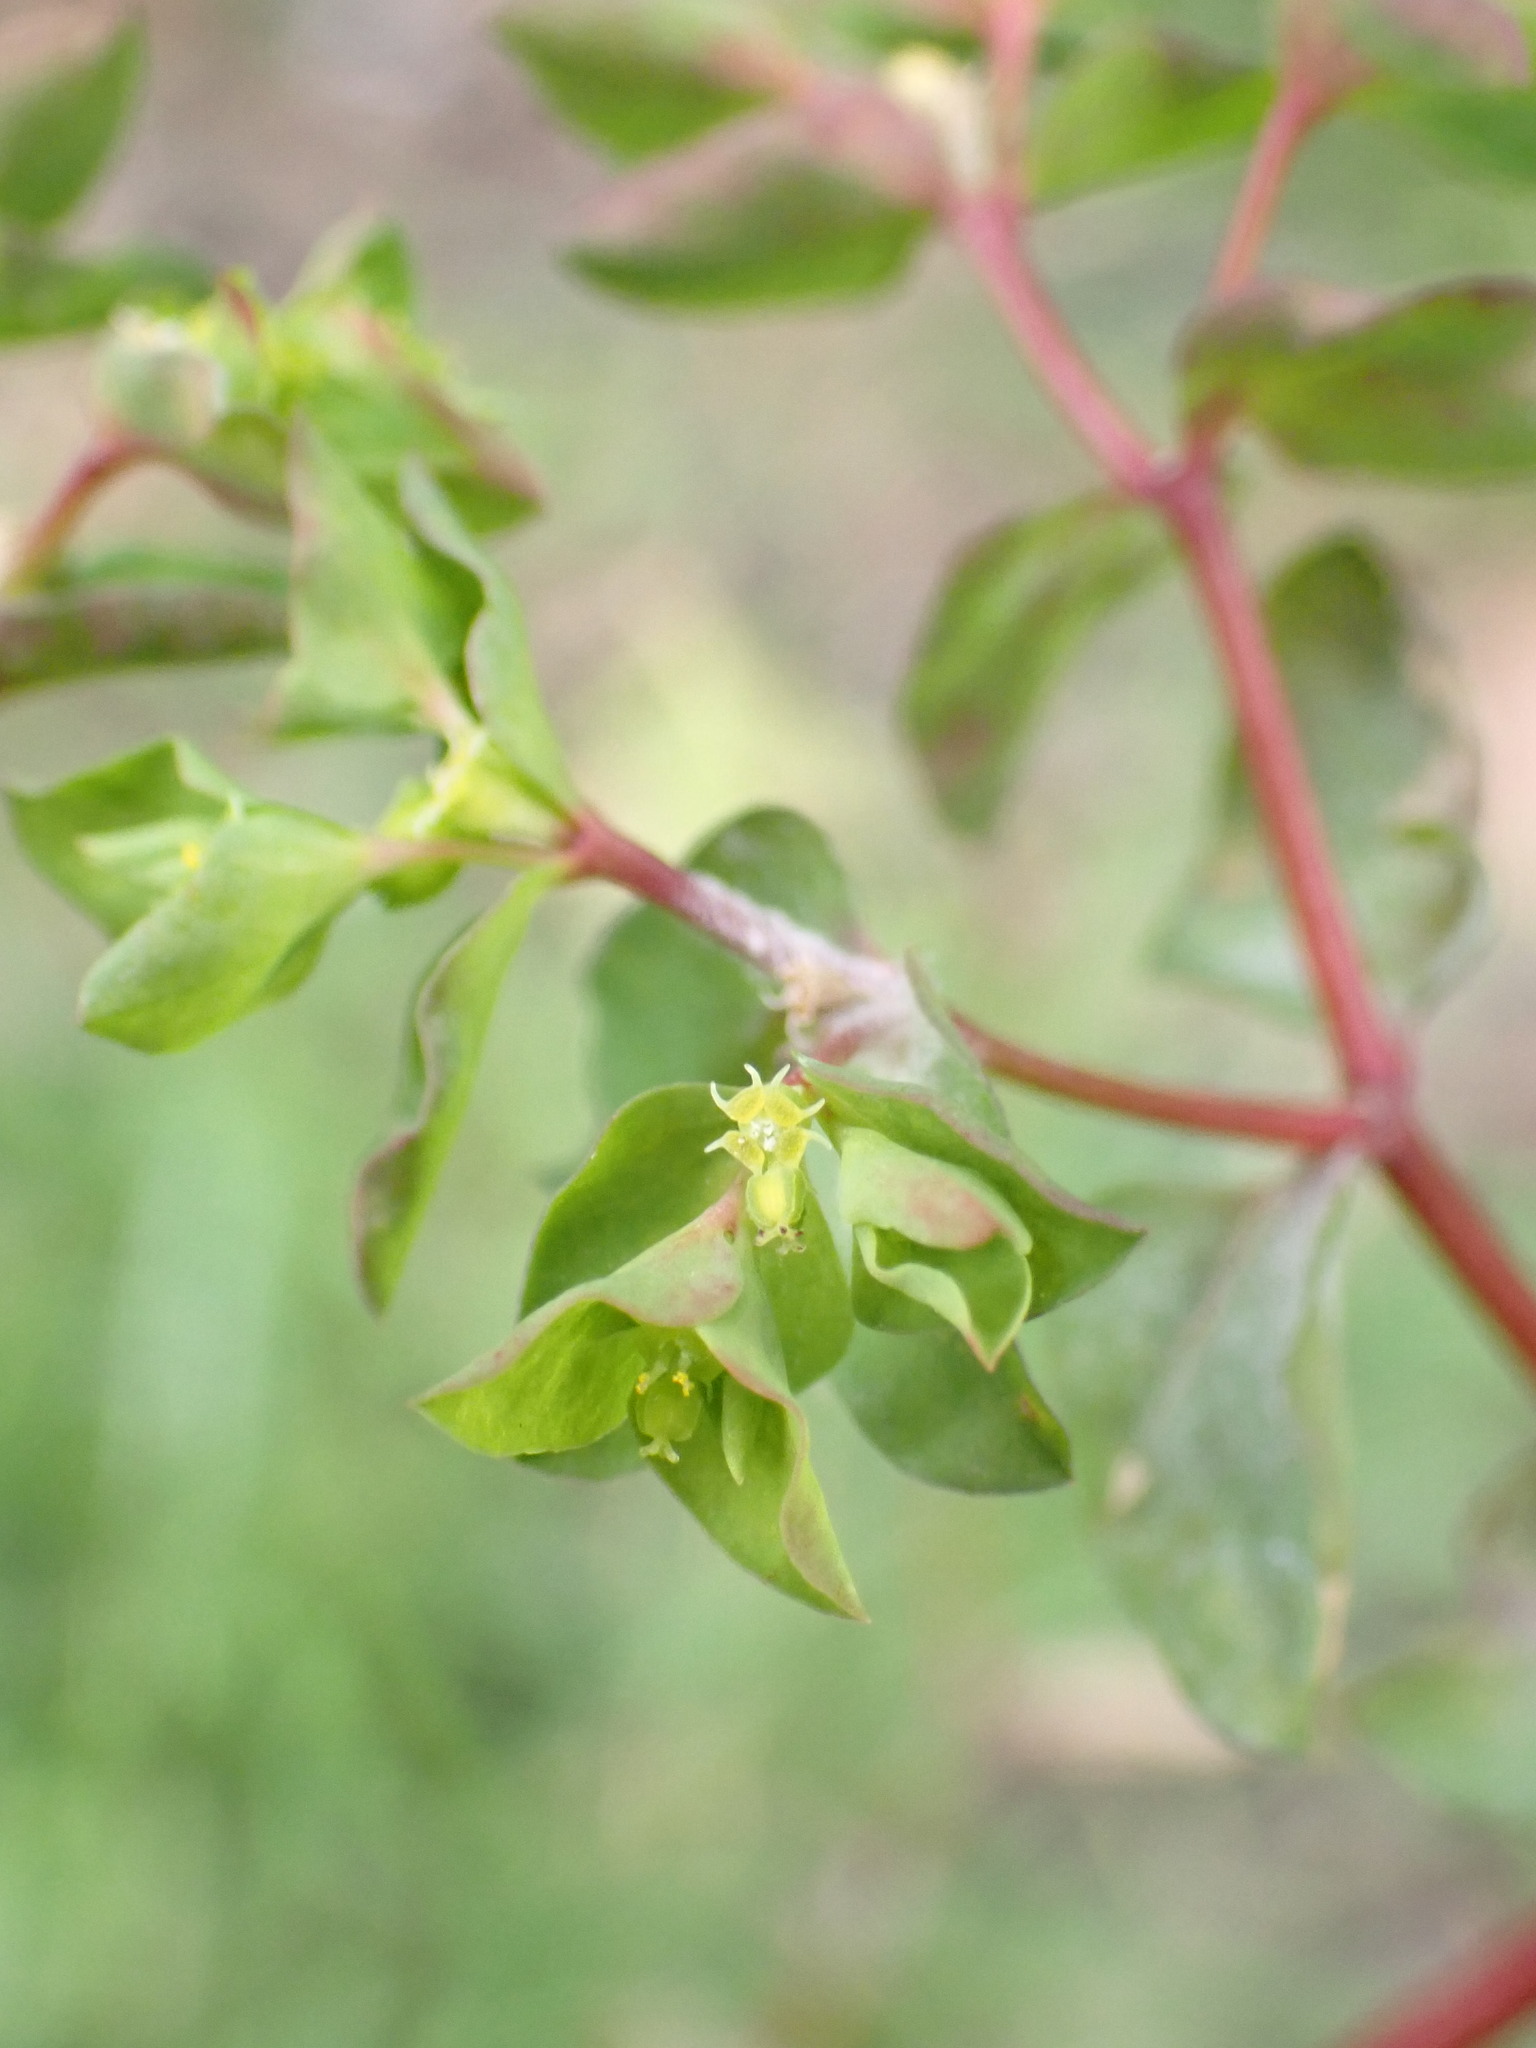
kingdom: Plantae
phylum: Tracheophyta
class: Magnoliopsida
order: Malpighiales
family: Euphorbiaceae
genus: Euphorbia
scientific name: Euphorbia peplus
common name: Petty spurge
